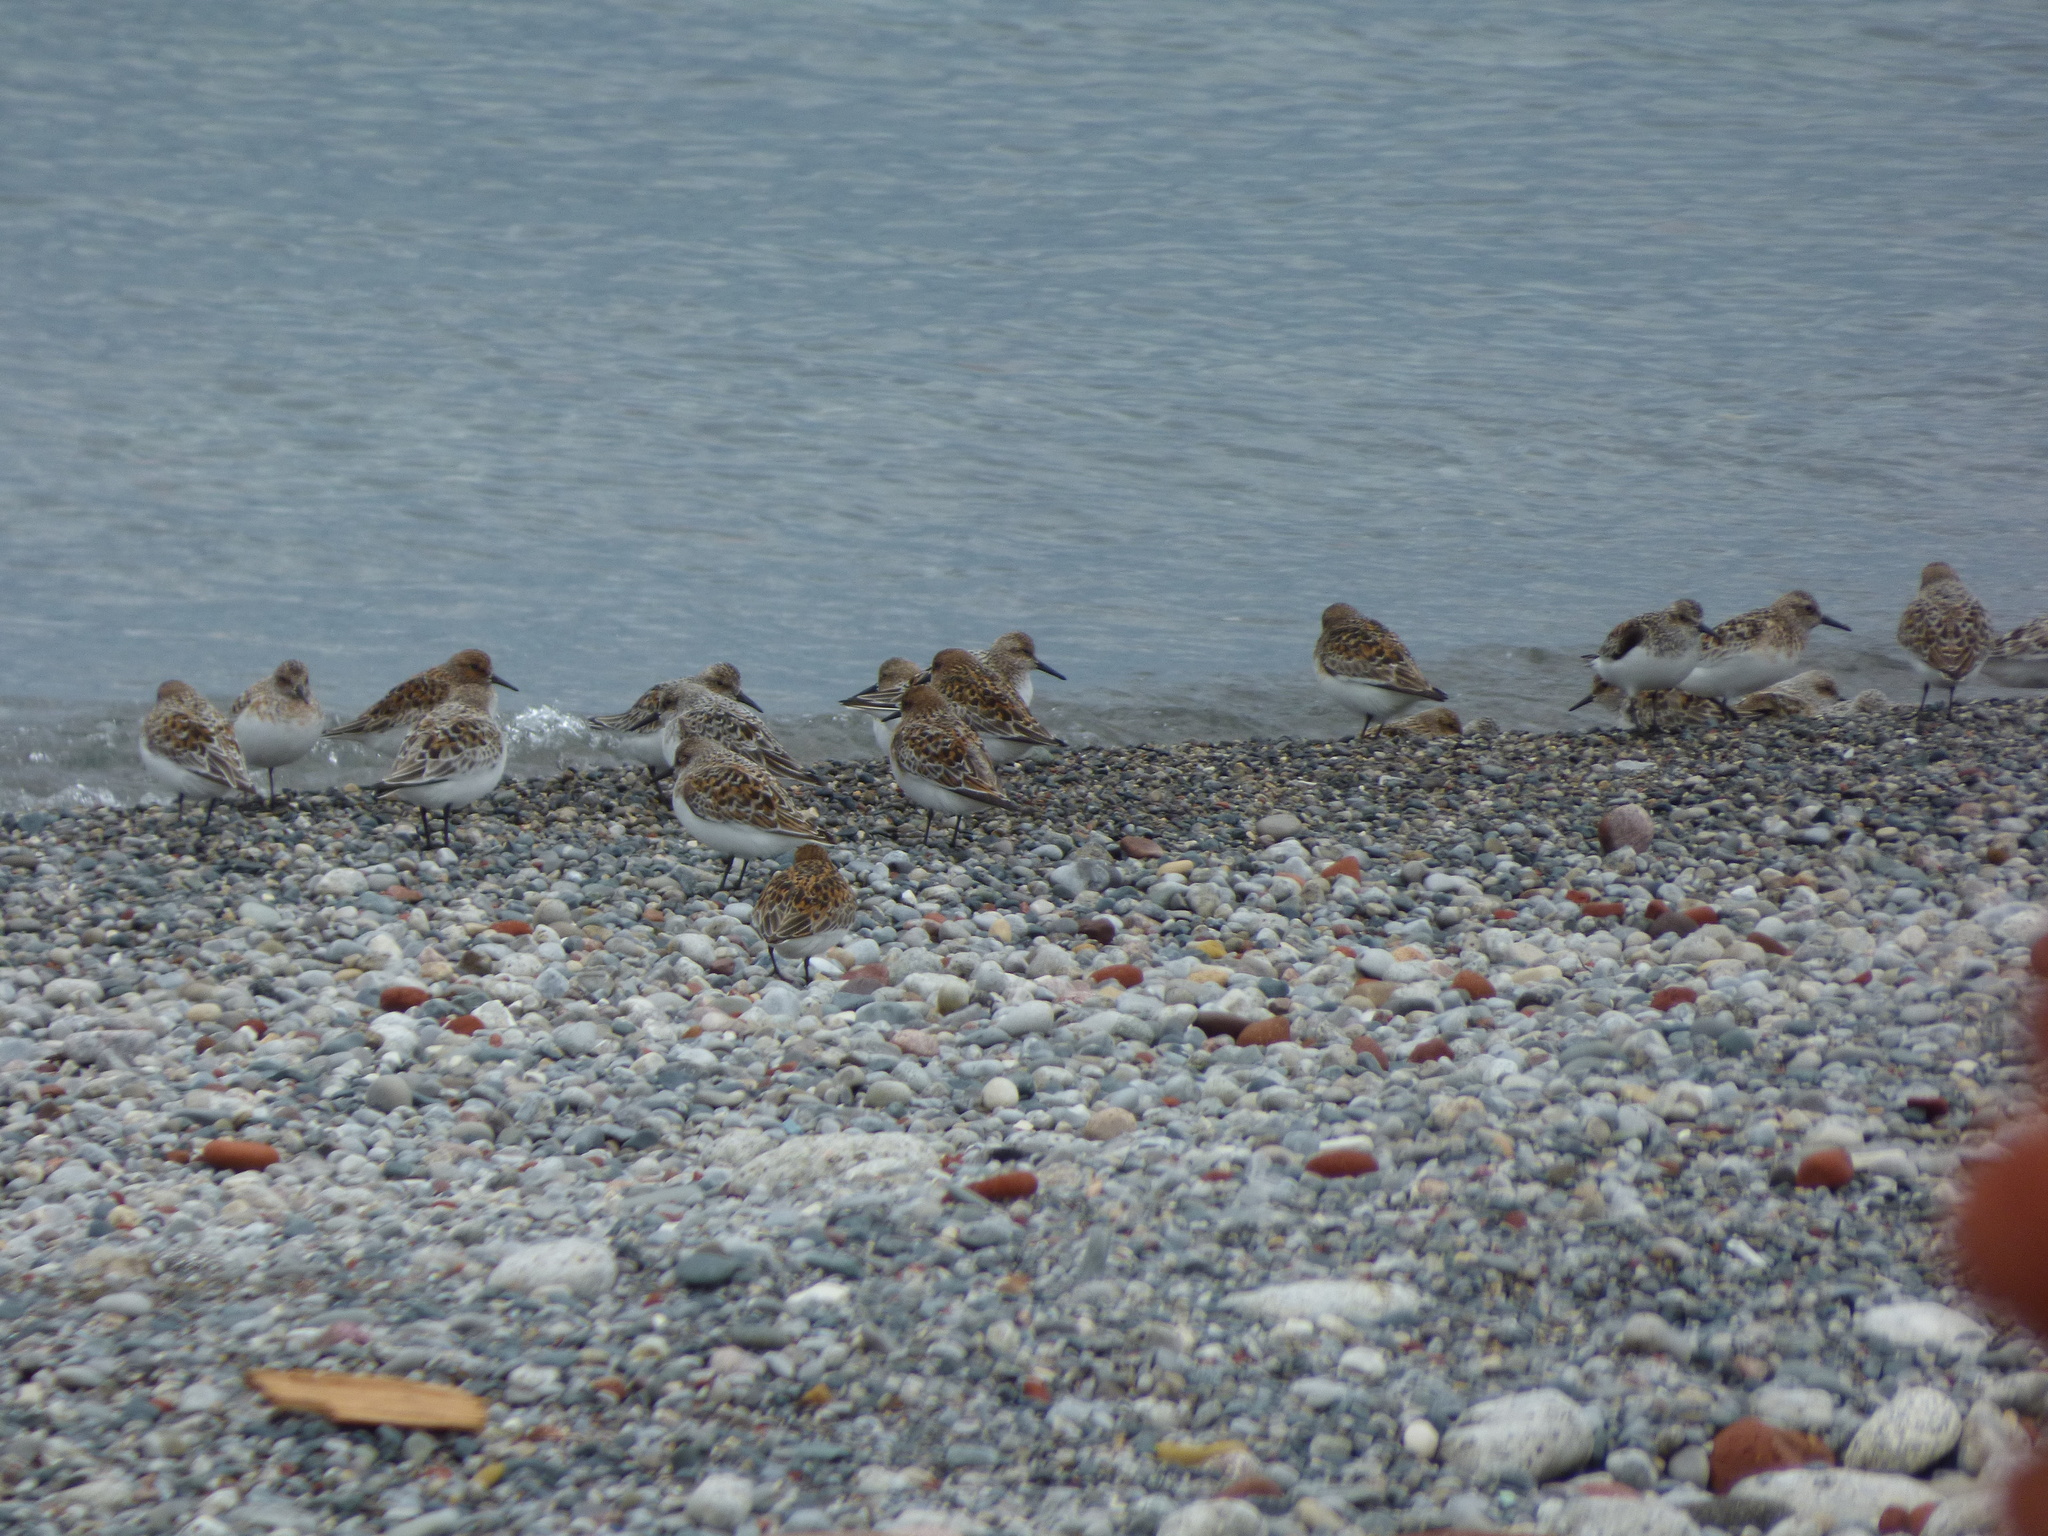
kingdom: Animalia
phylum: Chordata
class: Aves
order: Charadriiformes
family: Scolopacidae
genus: Calidris
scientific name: Calidris alba
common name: Sanderling
